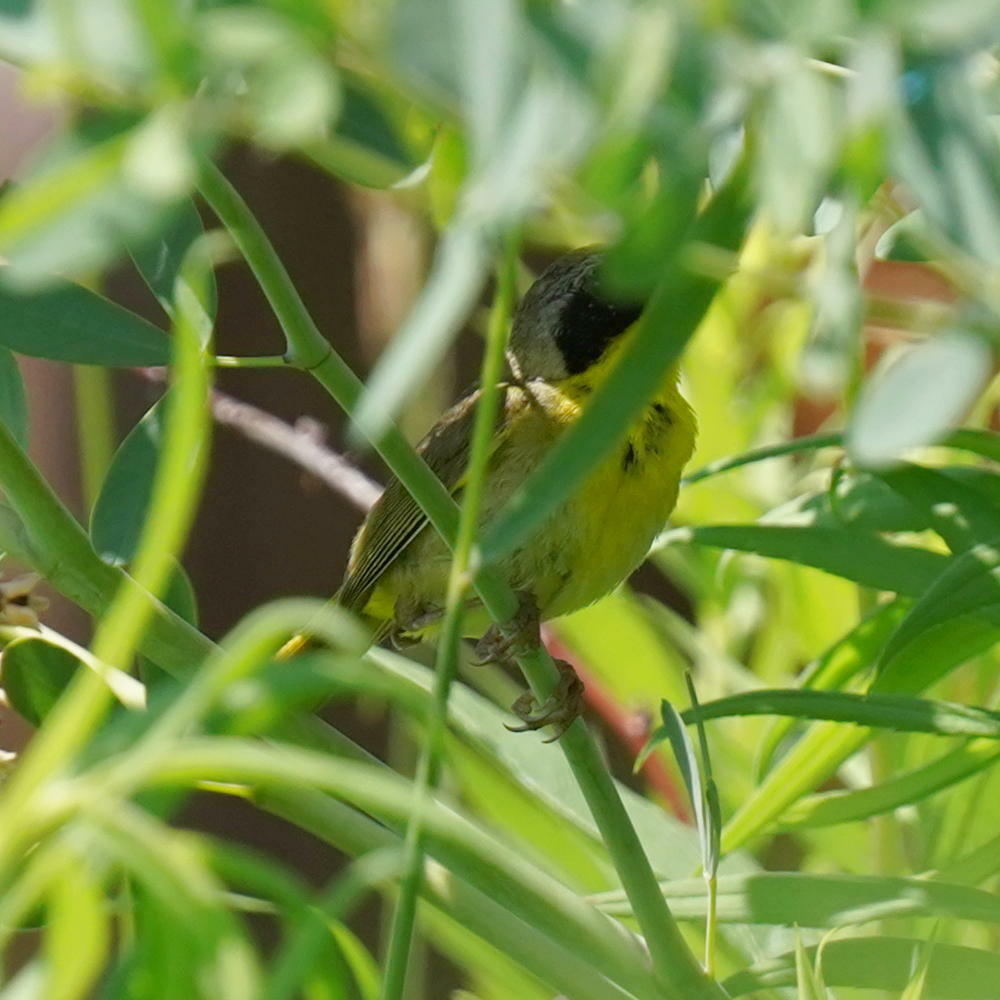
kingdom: Animalia
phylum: Chordata
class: Aves
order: Passeriformes
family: Parulidae
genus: Geothlypis
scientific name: Geothlypis trichas
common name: Common yellowthroat
